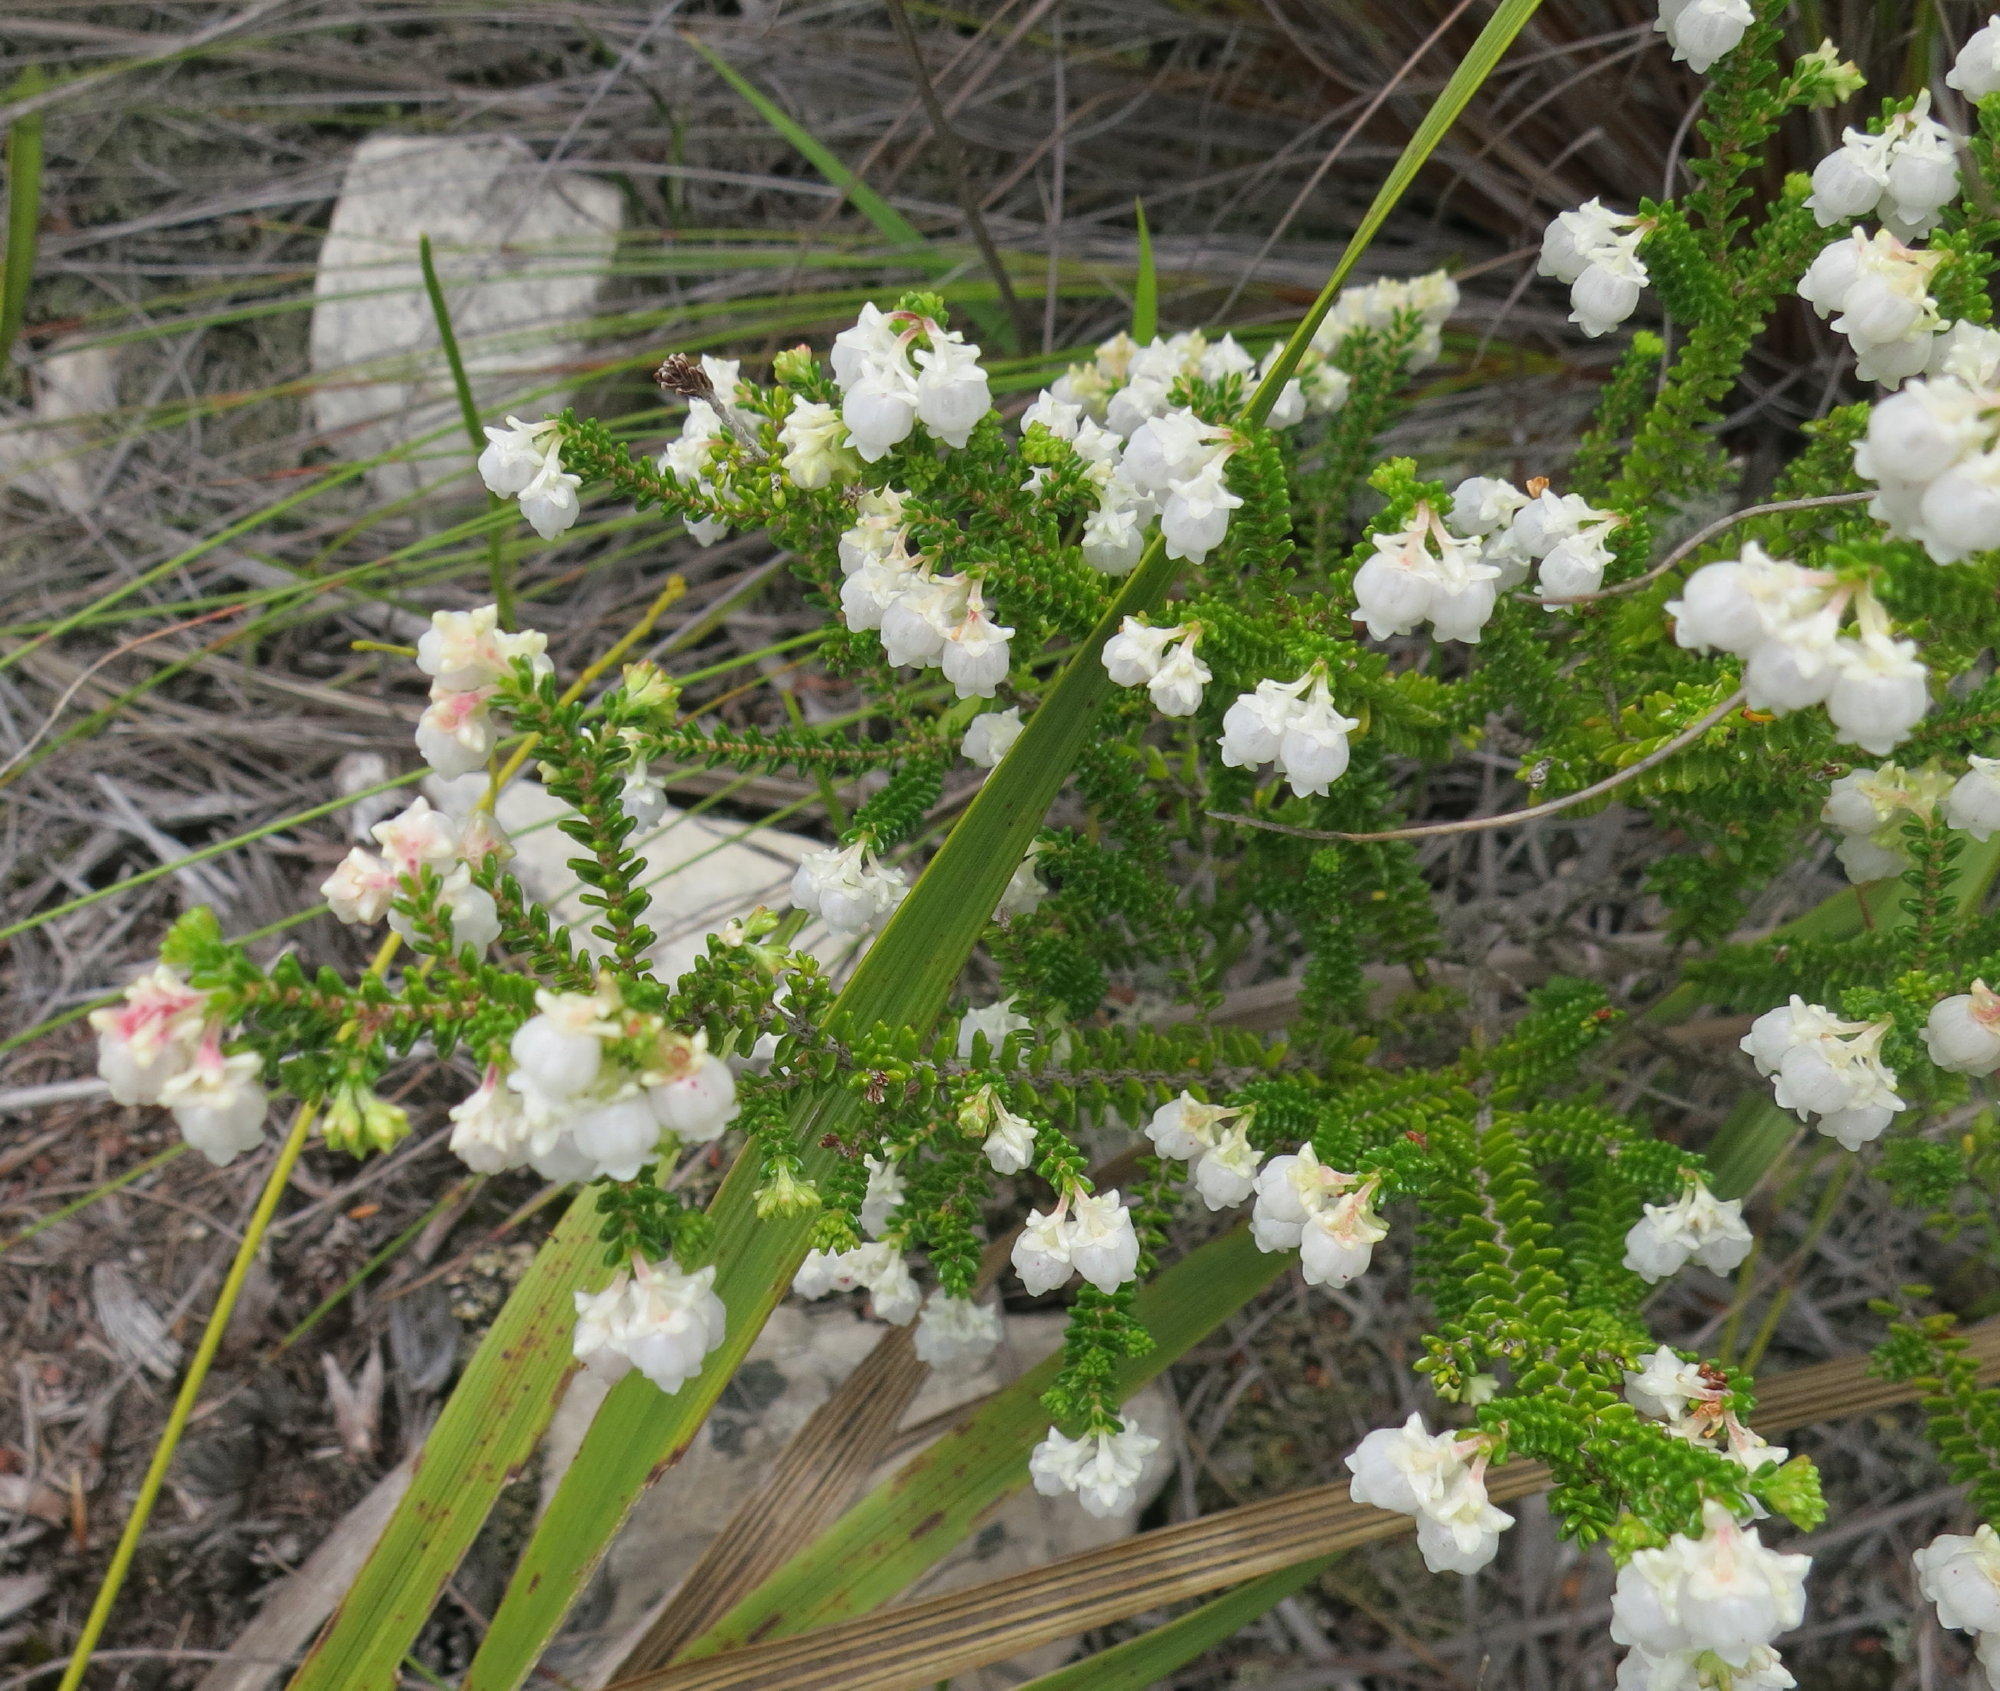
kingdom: Plantae
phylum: Tracheophyta
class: Magnoliopsida
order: Ericales
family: Ericaceae
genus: Erica
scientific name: Erica formosa
